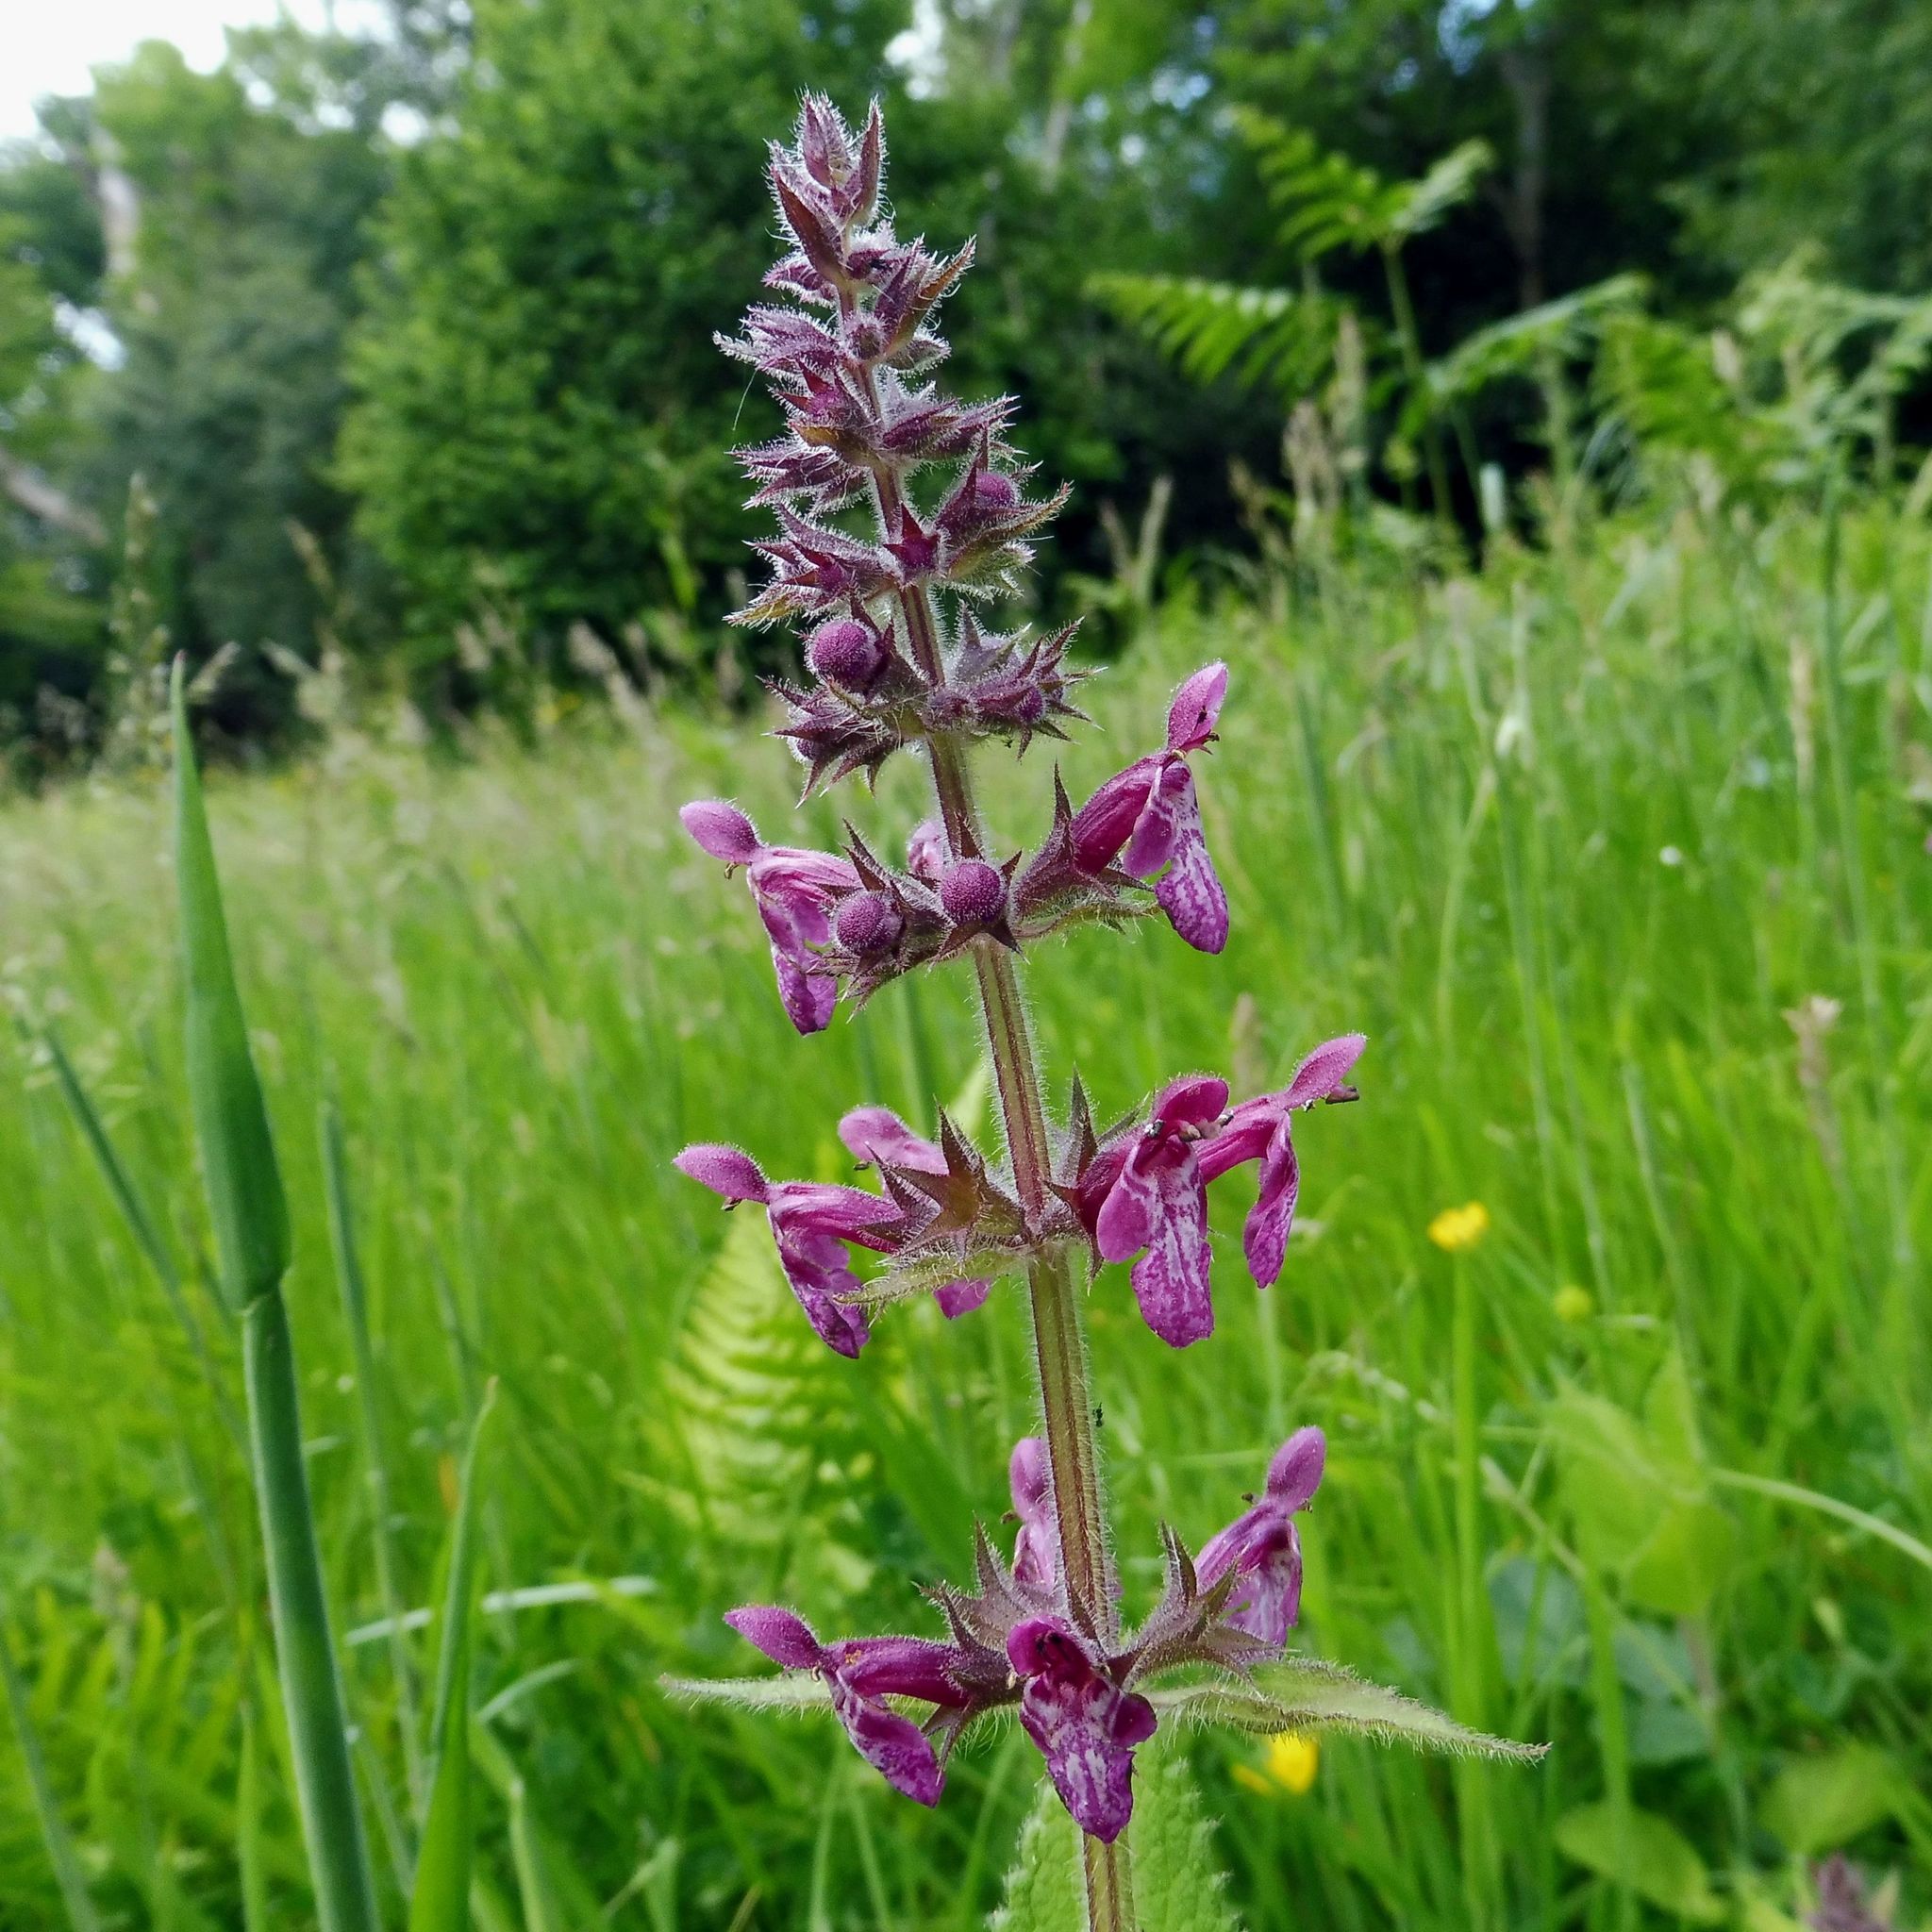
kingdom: Plantae
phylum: Tracheophyta
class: Magnoliopsida
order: Lamiales
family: Lamiaceae
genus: Stachys
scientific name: Stachys sylvatica
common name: Hedge woundwort
